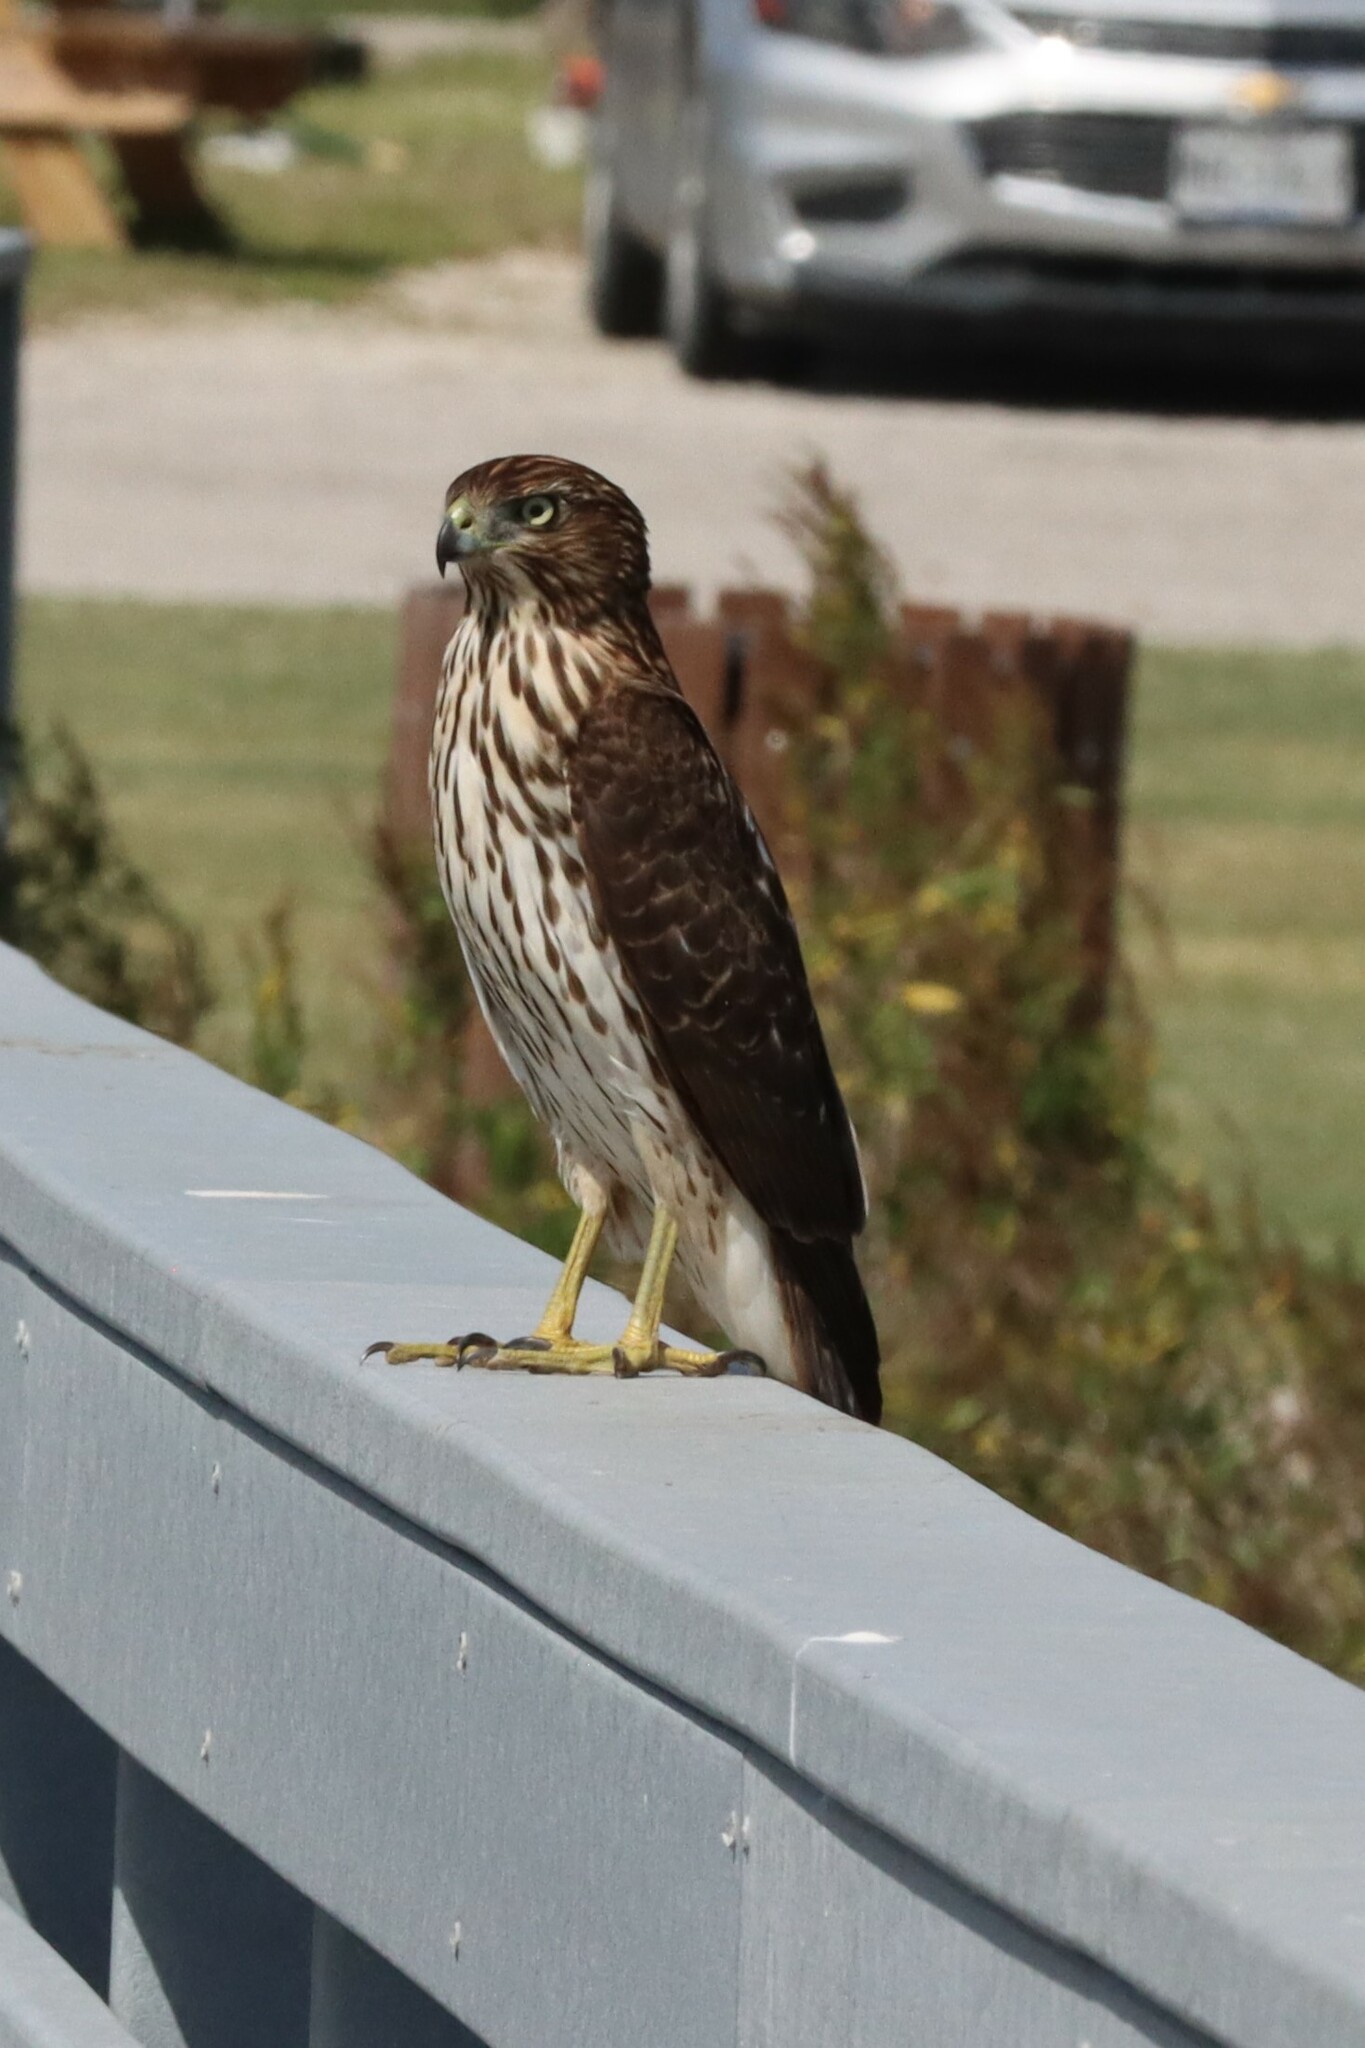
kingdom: Animalia
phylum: Chordata
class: Aves
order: Accipitriformes
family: Accipitridae
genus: Accipiter
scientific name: Accipiter cooperii
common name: Cooper's hawk
